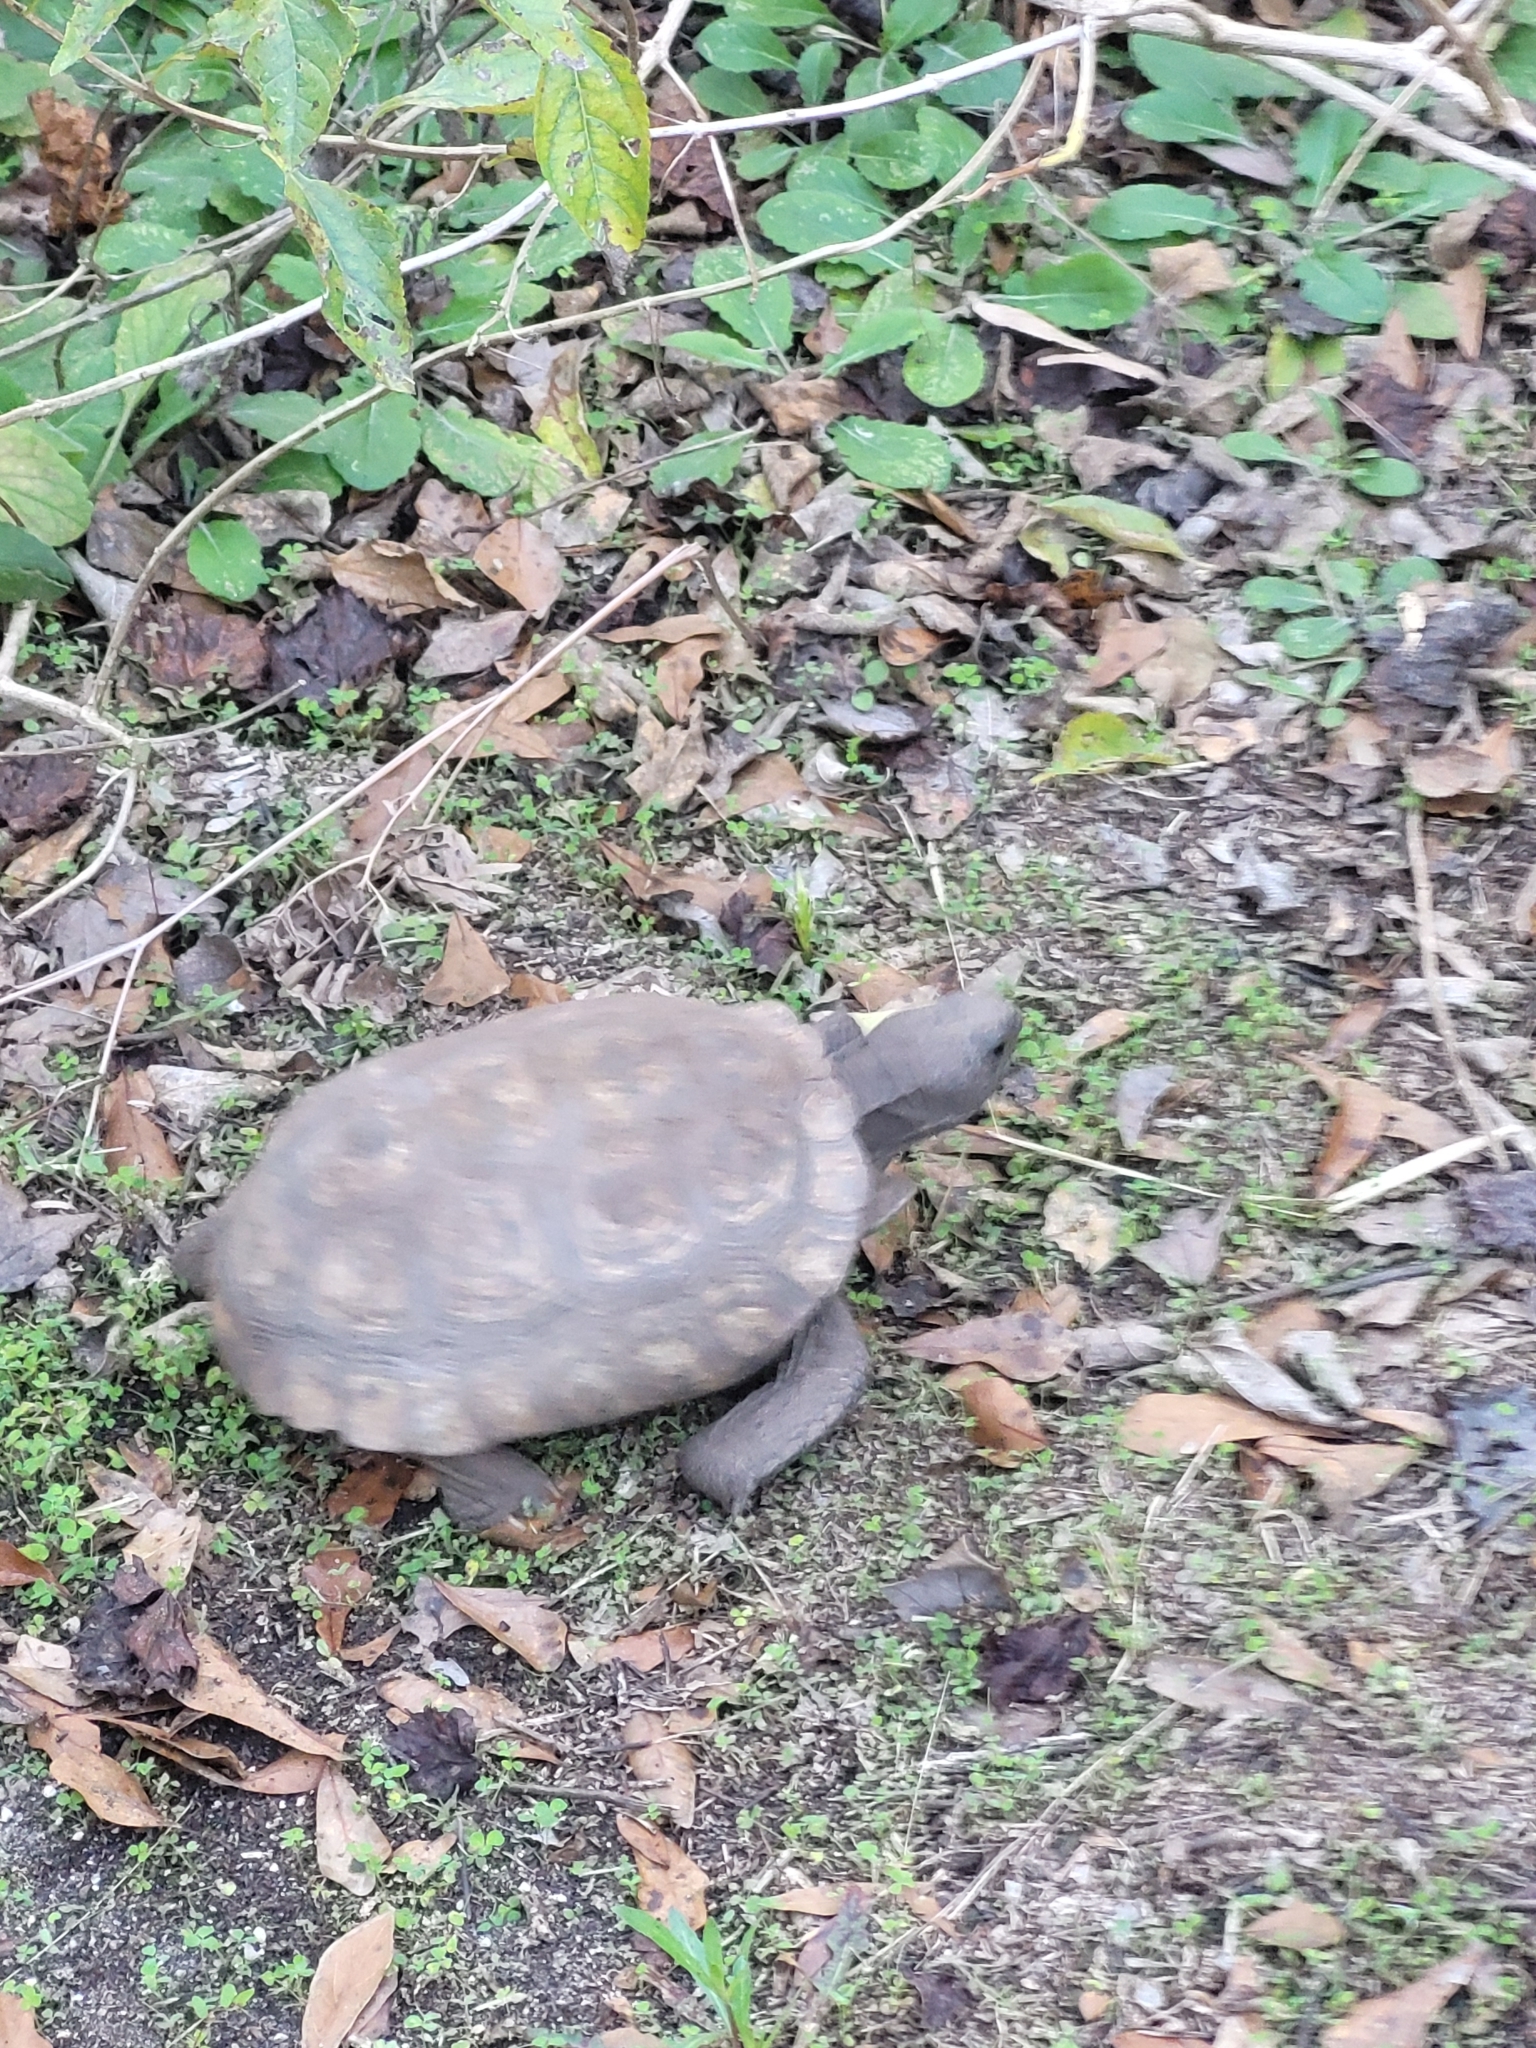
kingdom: Animalia
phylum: Chordata
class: Testudines
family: Testudinidae
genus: Gopherus
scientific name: Gopherus polyphemus
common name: Florida gopher tortoise
